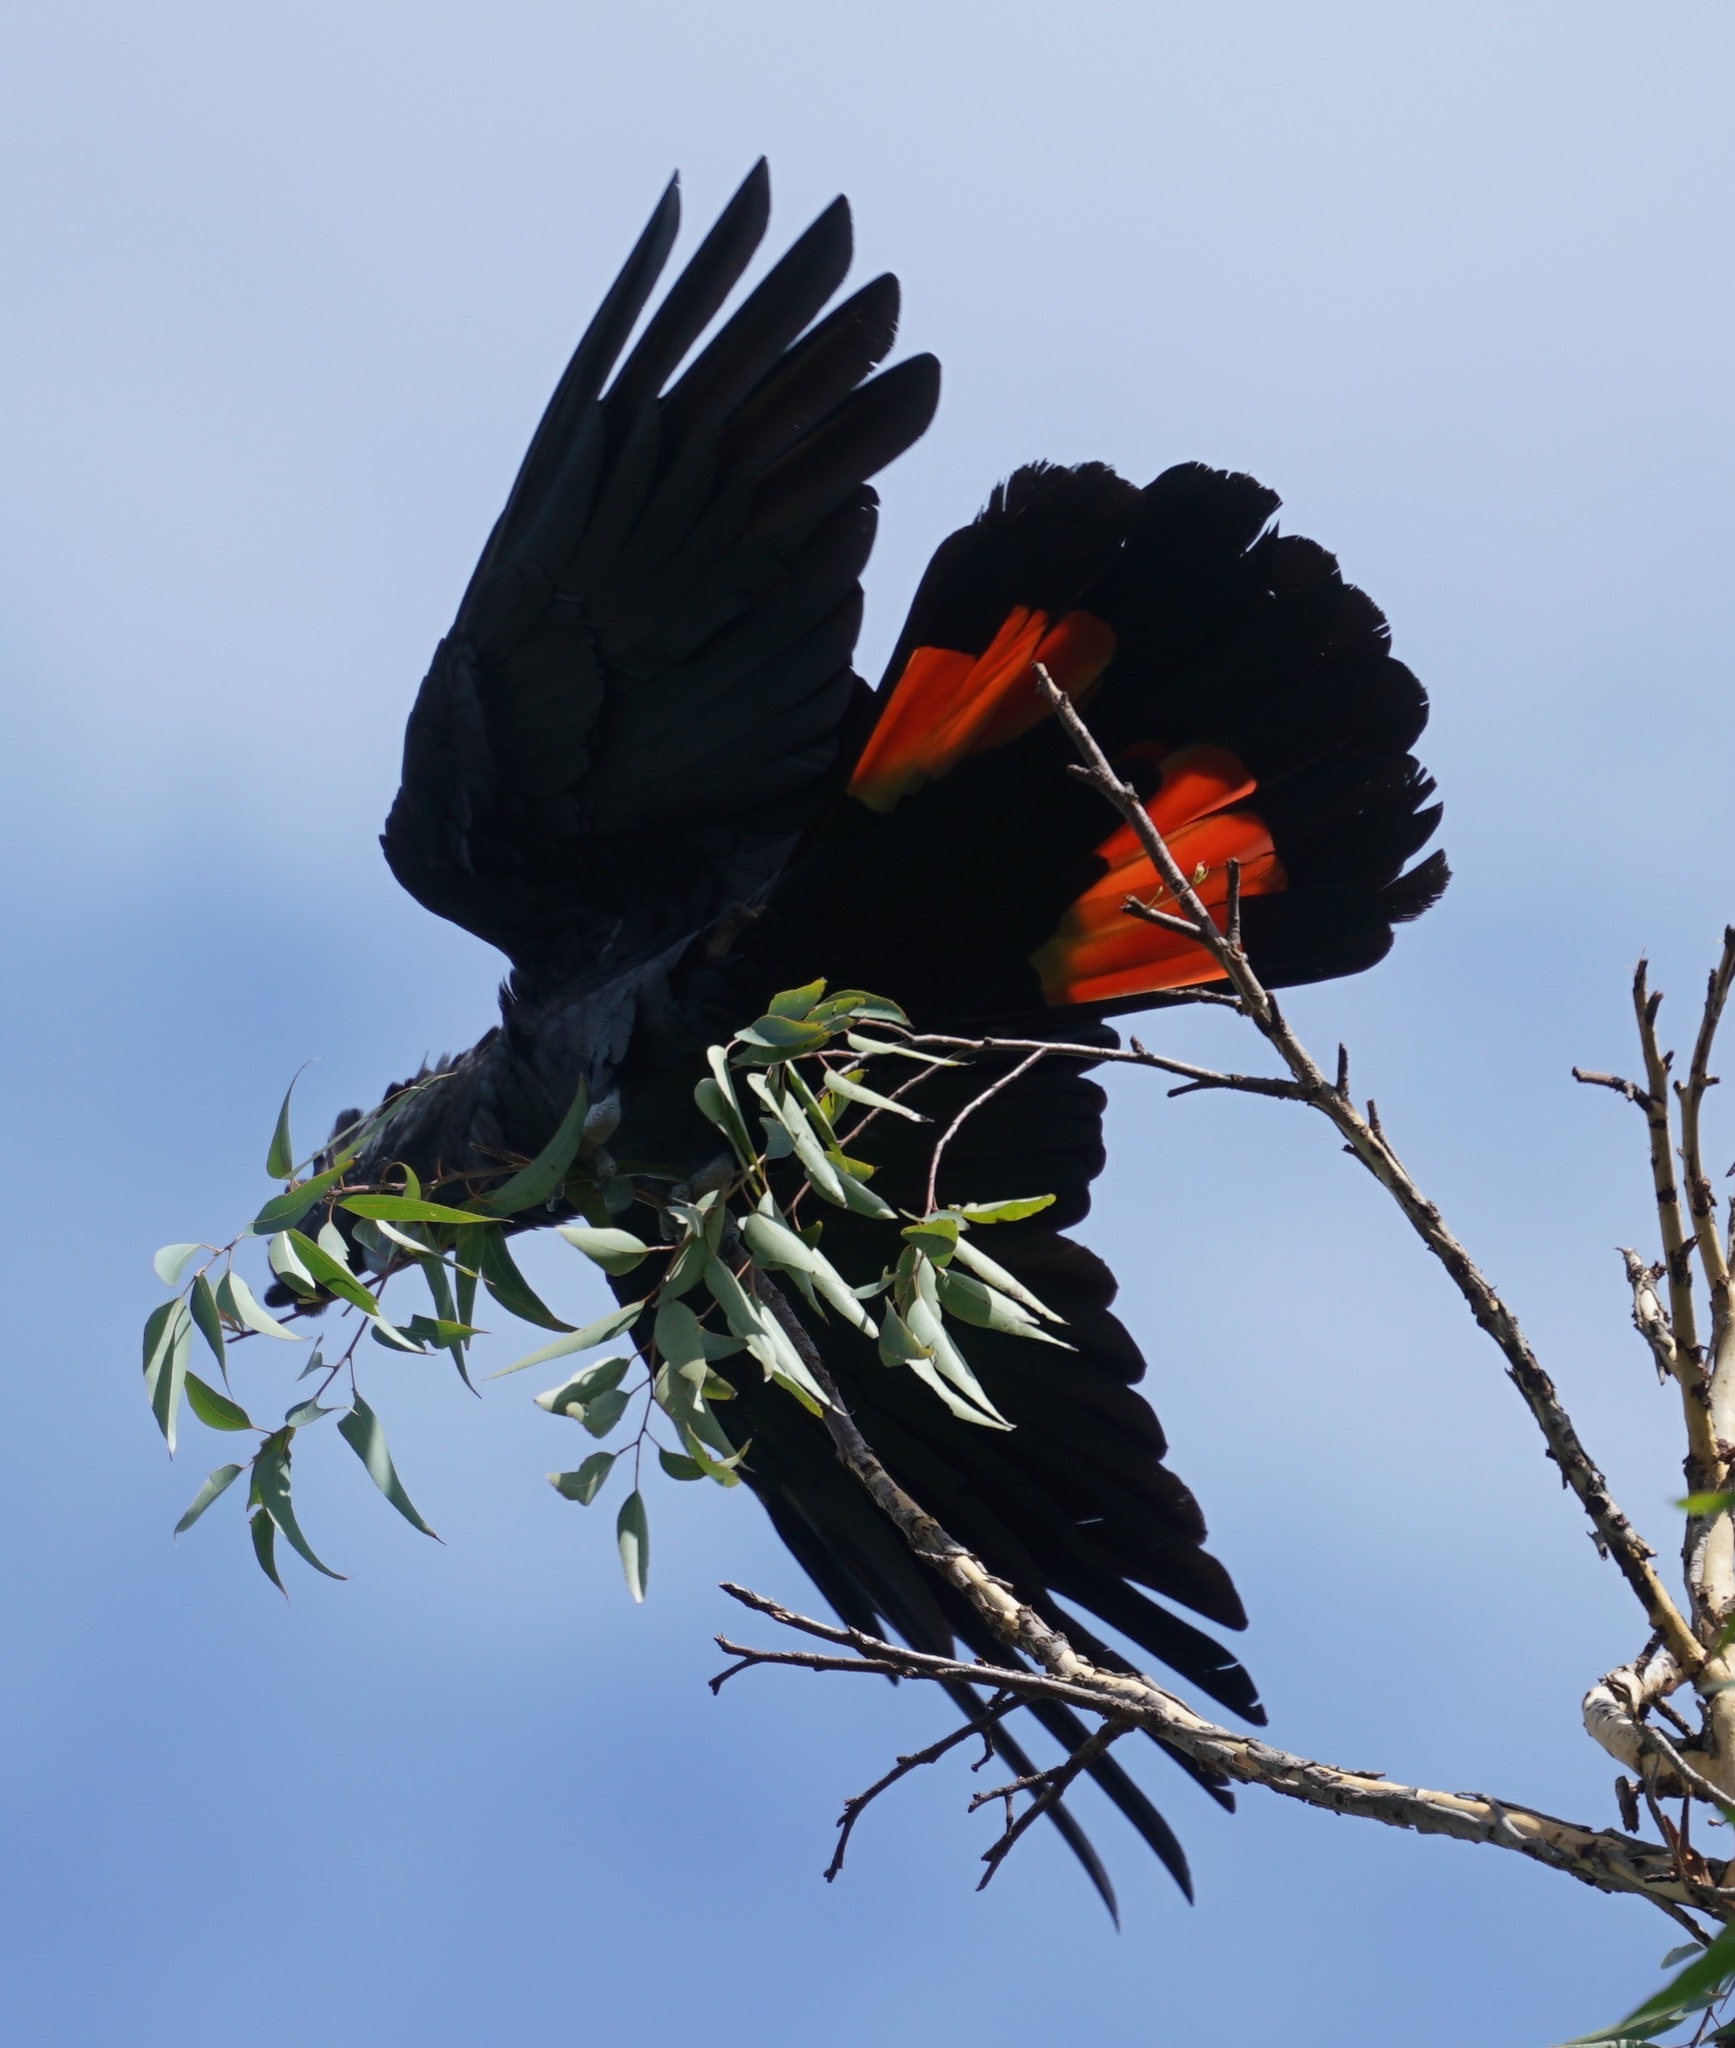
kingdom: Animalia
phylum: Chordata
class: Aves
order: Psittaciformes
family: Psittacidae
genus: Calyptorhynchus
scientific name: Calyptorhynchus banksii
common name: Red-tailed black cockatoo
